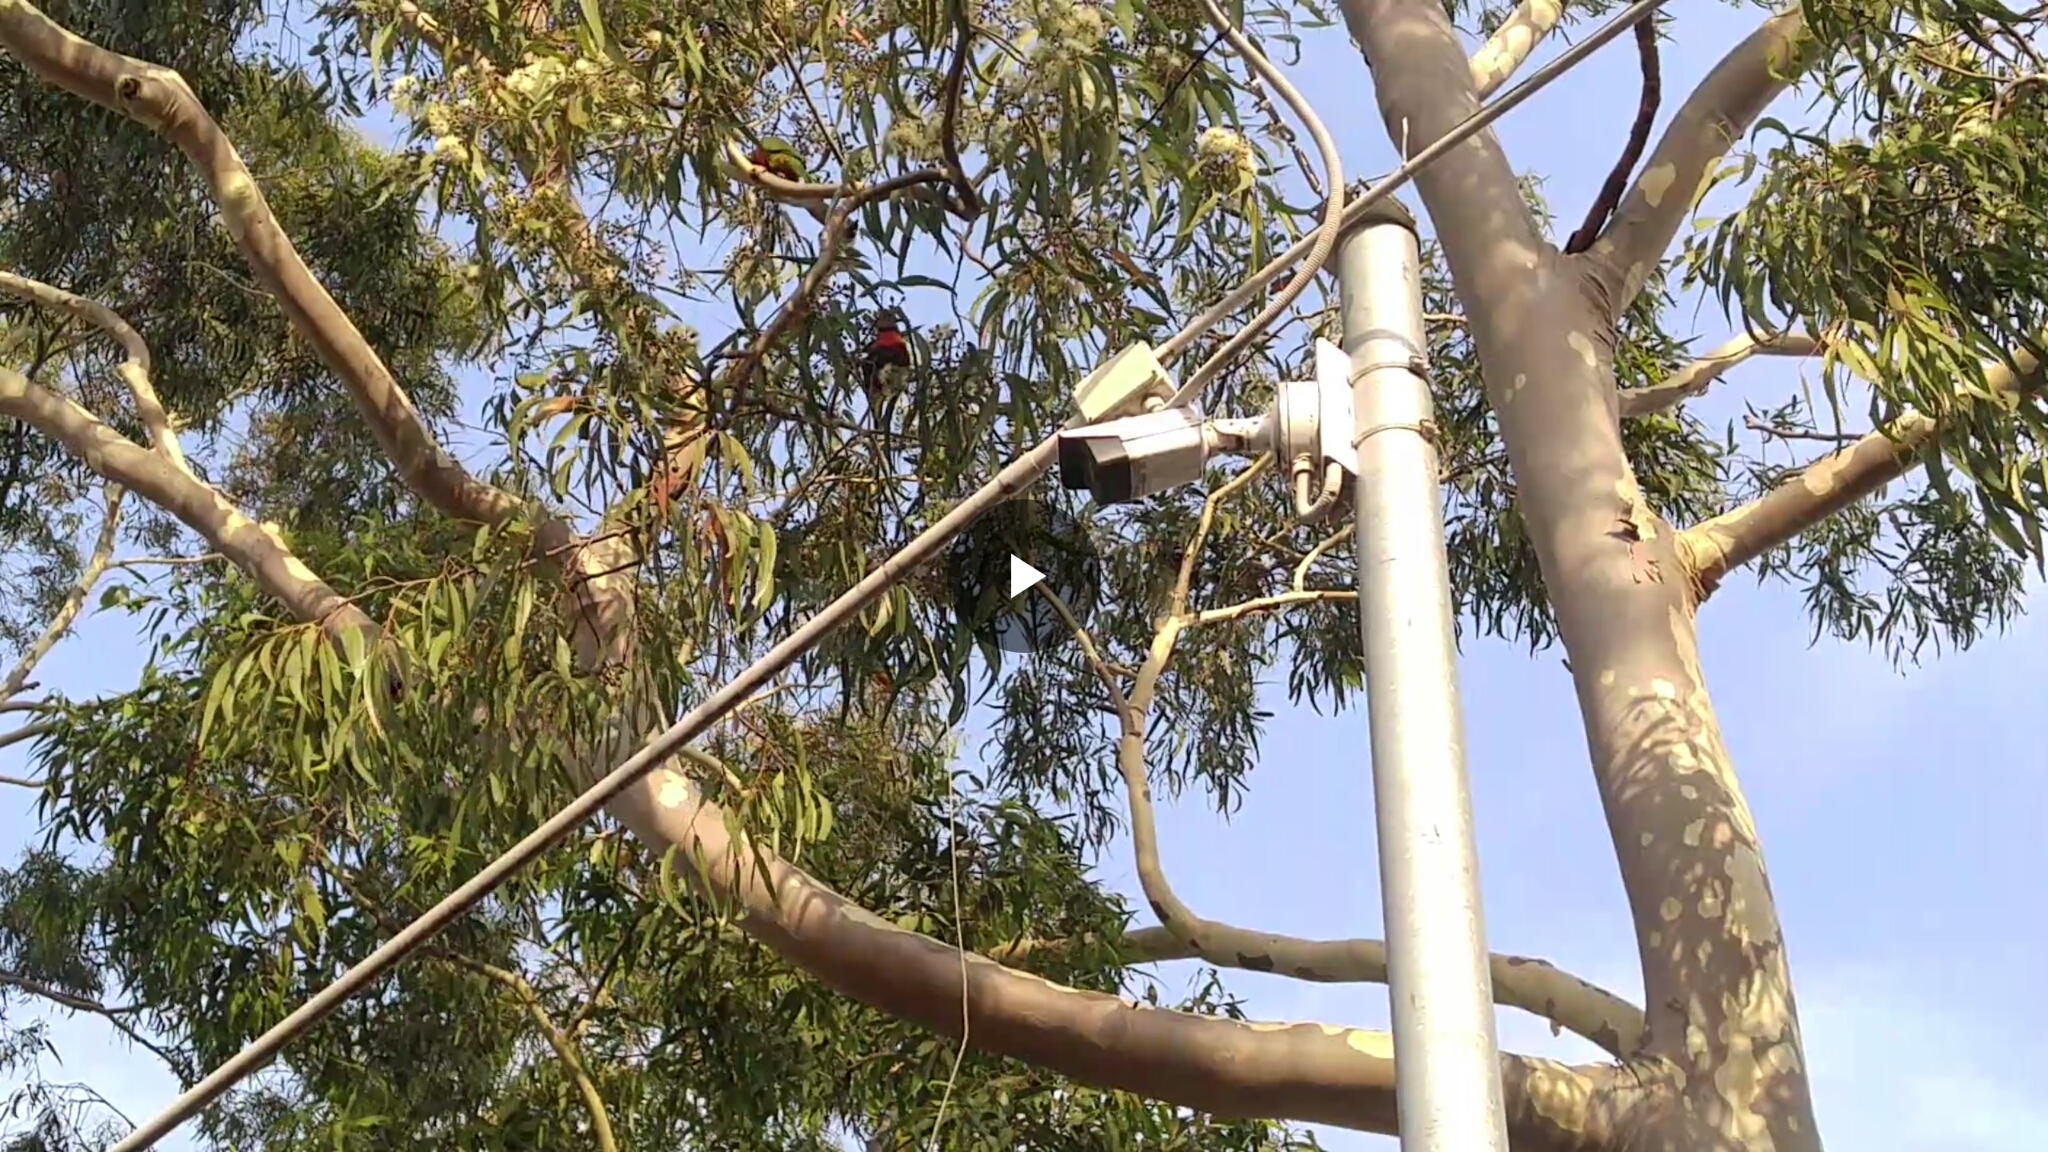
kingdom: Animalia
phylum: Chordata
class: Aves
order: Psittaciformes
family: Psittacidae
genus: Trichoglossus
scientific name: Trichoglossus haematodus
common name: Coconut lorikeet
